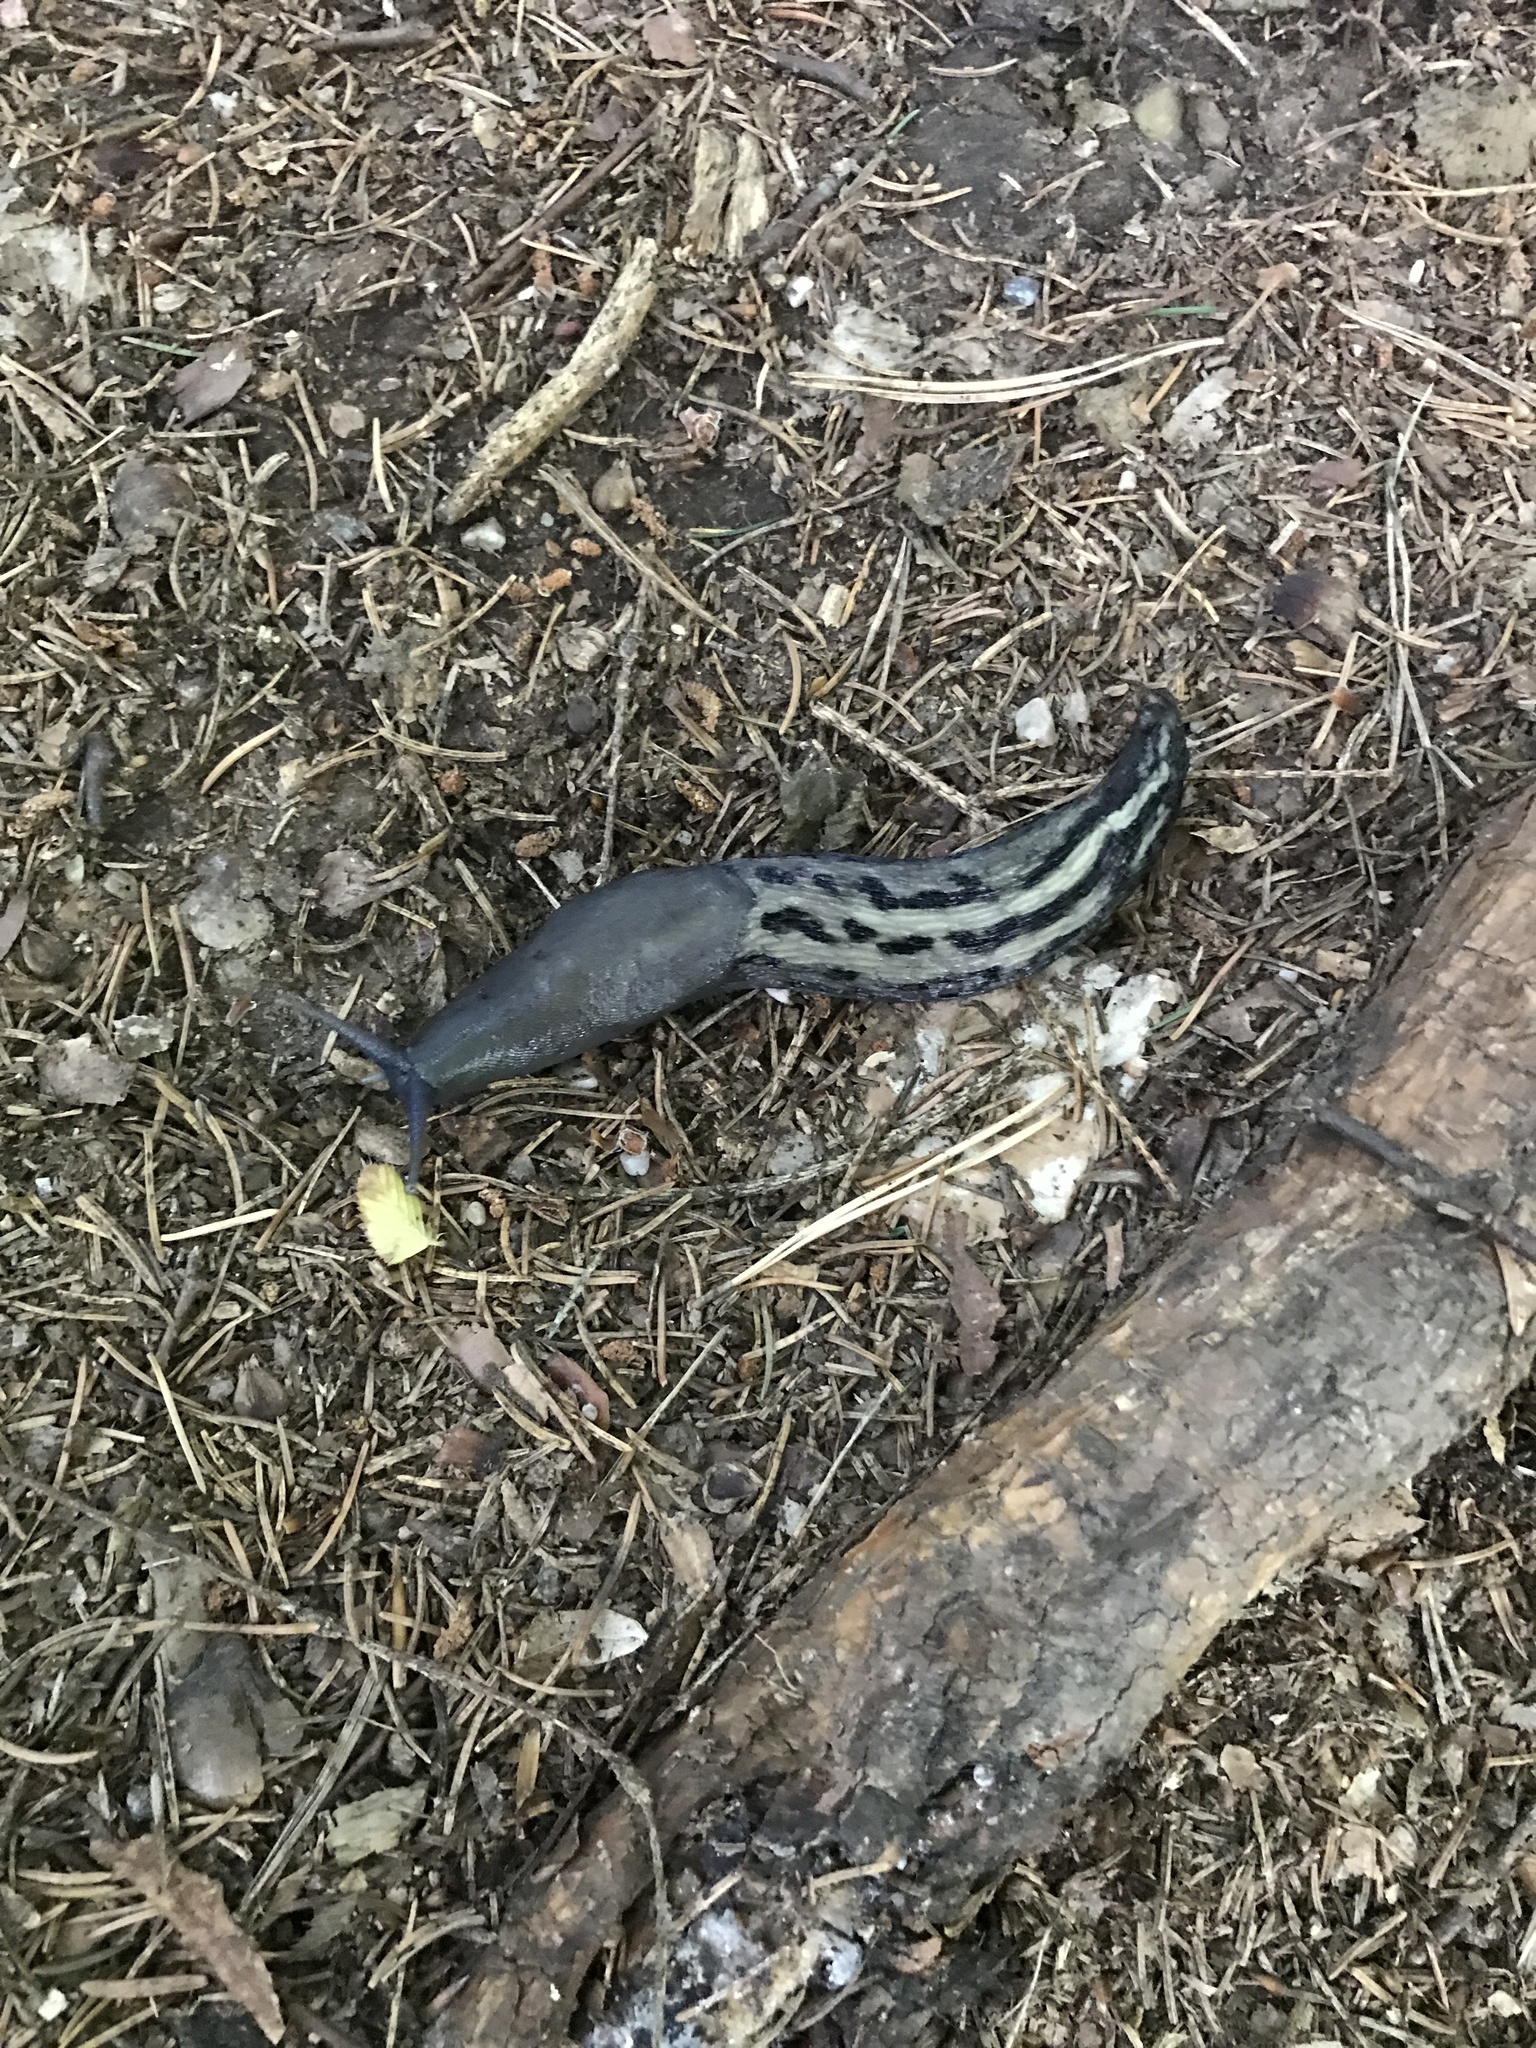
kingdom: Animalia
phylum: Mollusca
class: Gastropoda
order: Stylommatophora
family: Limacidae
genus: Limax
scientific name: Limax cinereoniger
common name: Ash-black slug
